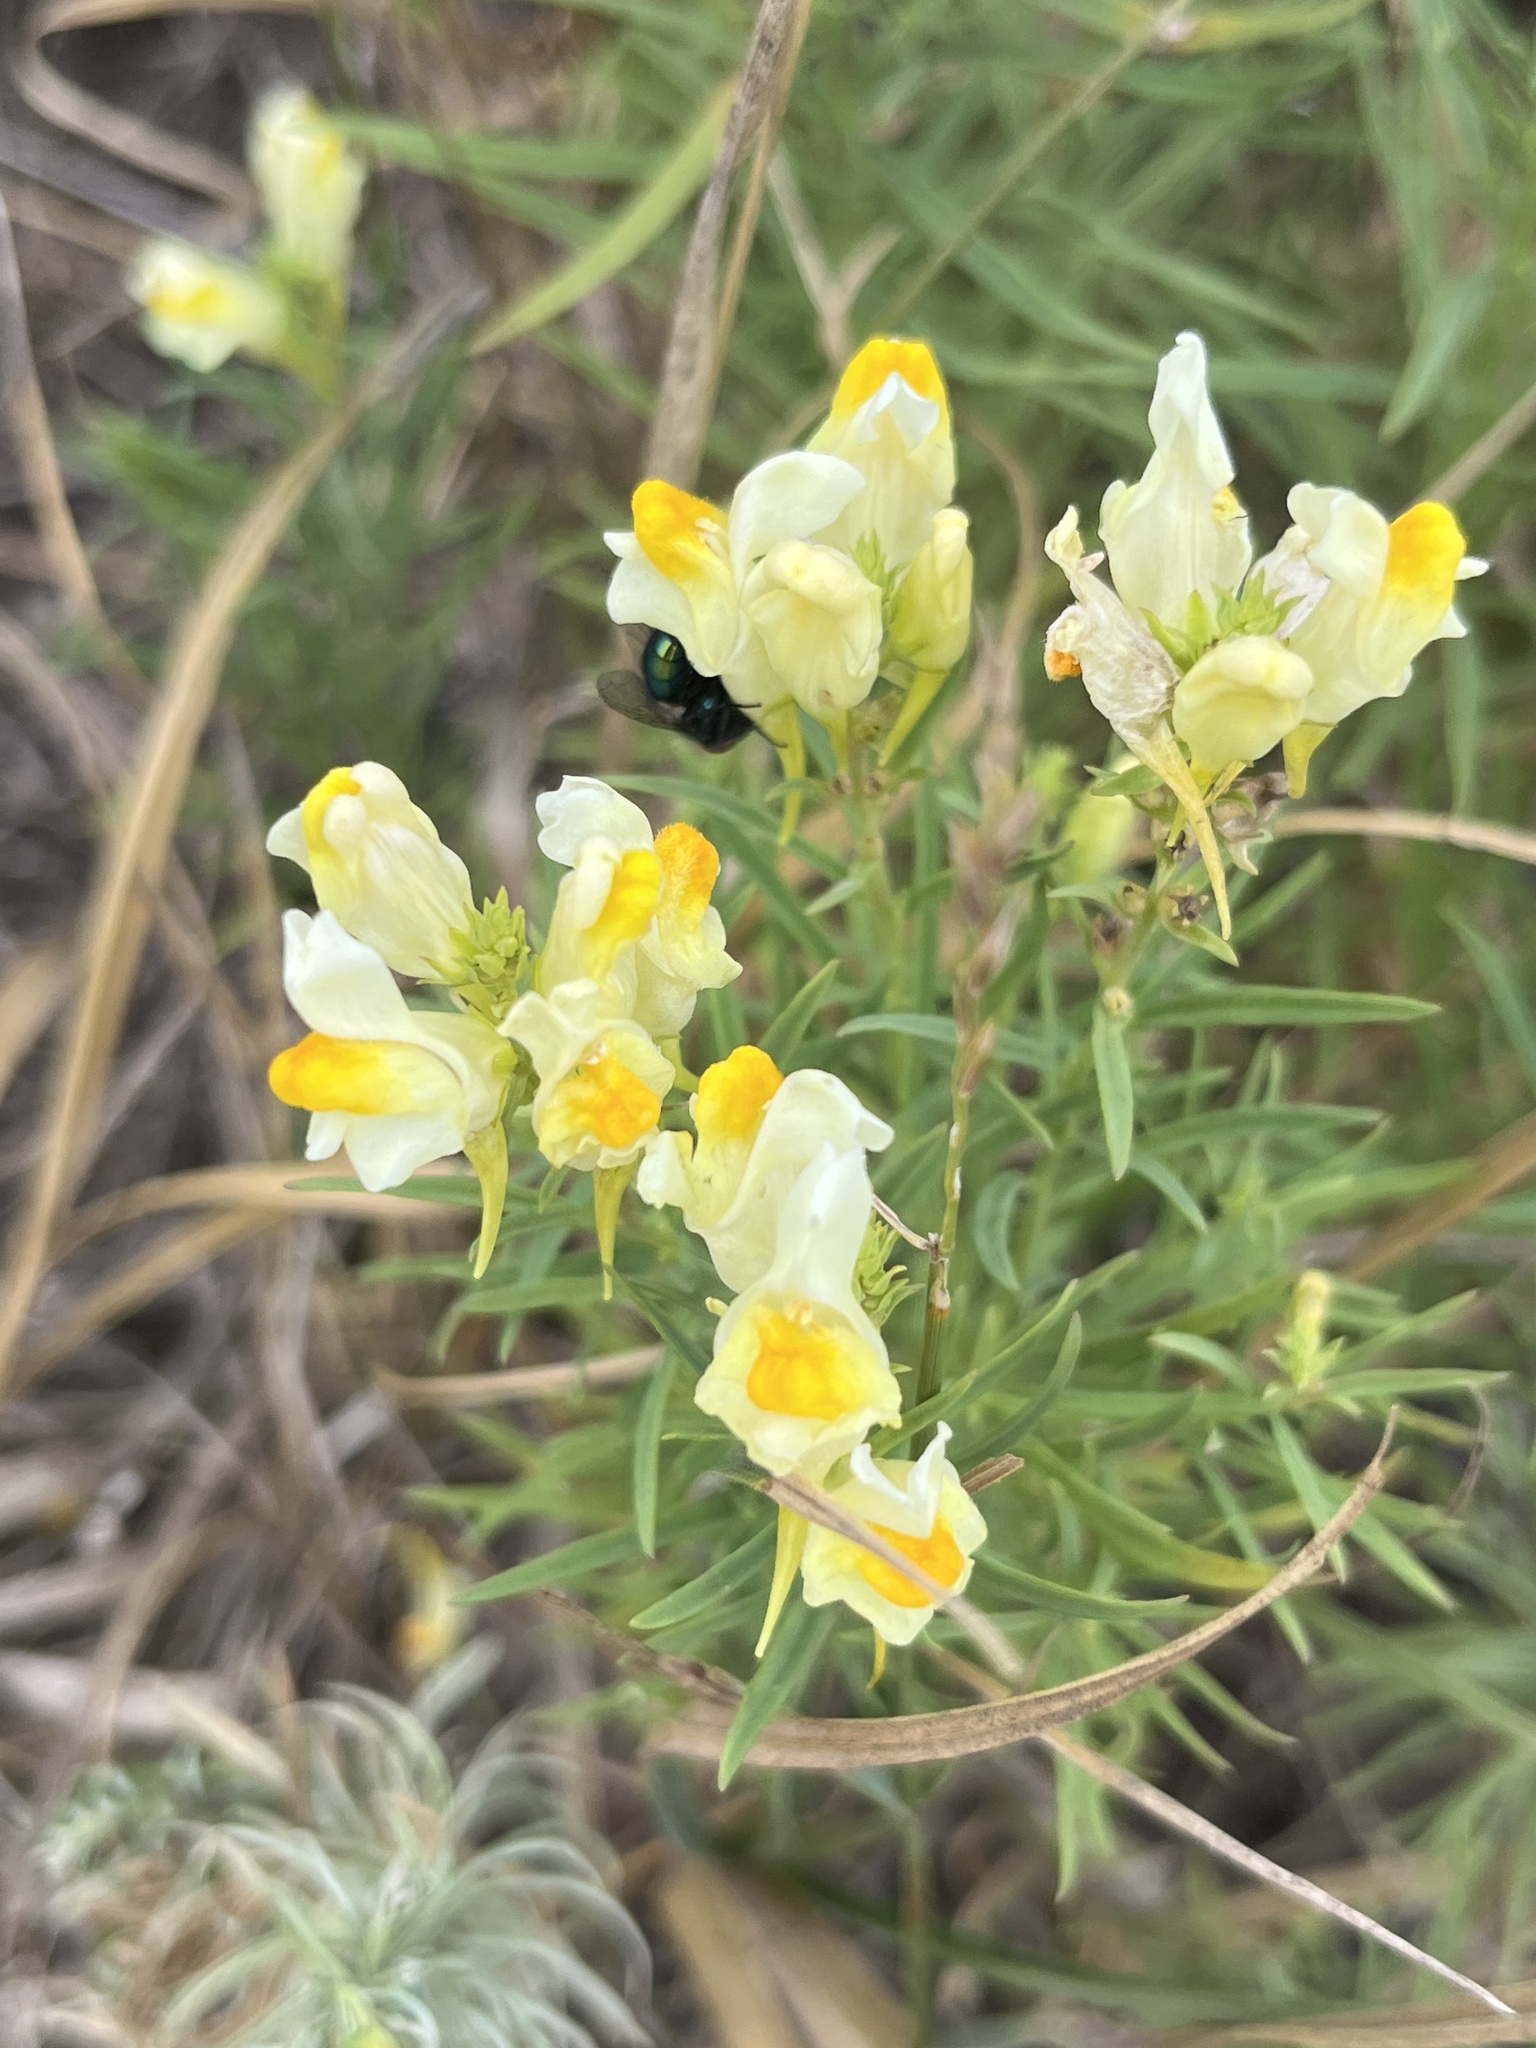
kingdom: Plantae
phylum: Tracheophyta
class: Magnoliopsida
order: Lamiales
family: Plantaginaceae
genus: Linaria
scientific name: Linaria vulgaris
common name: Butter and eggs
